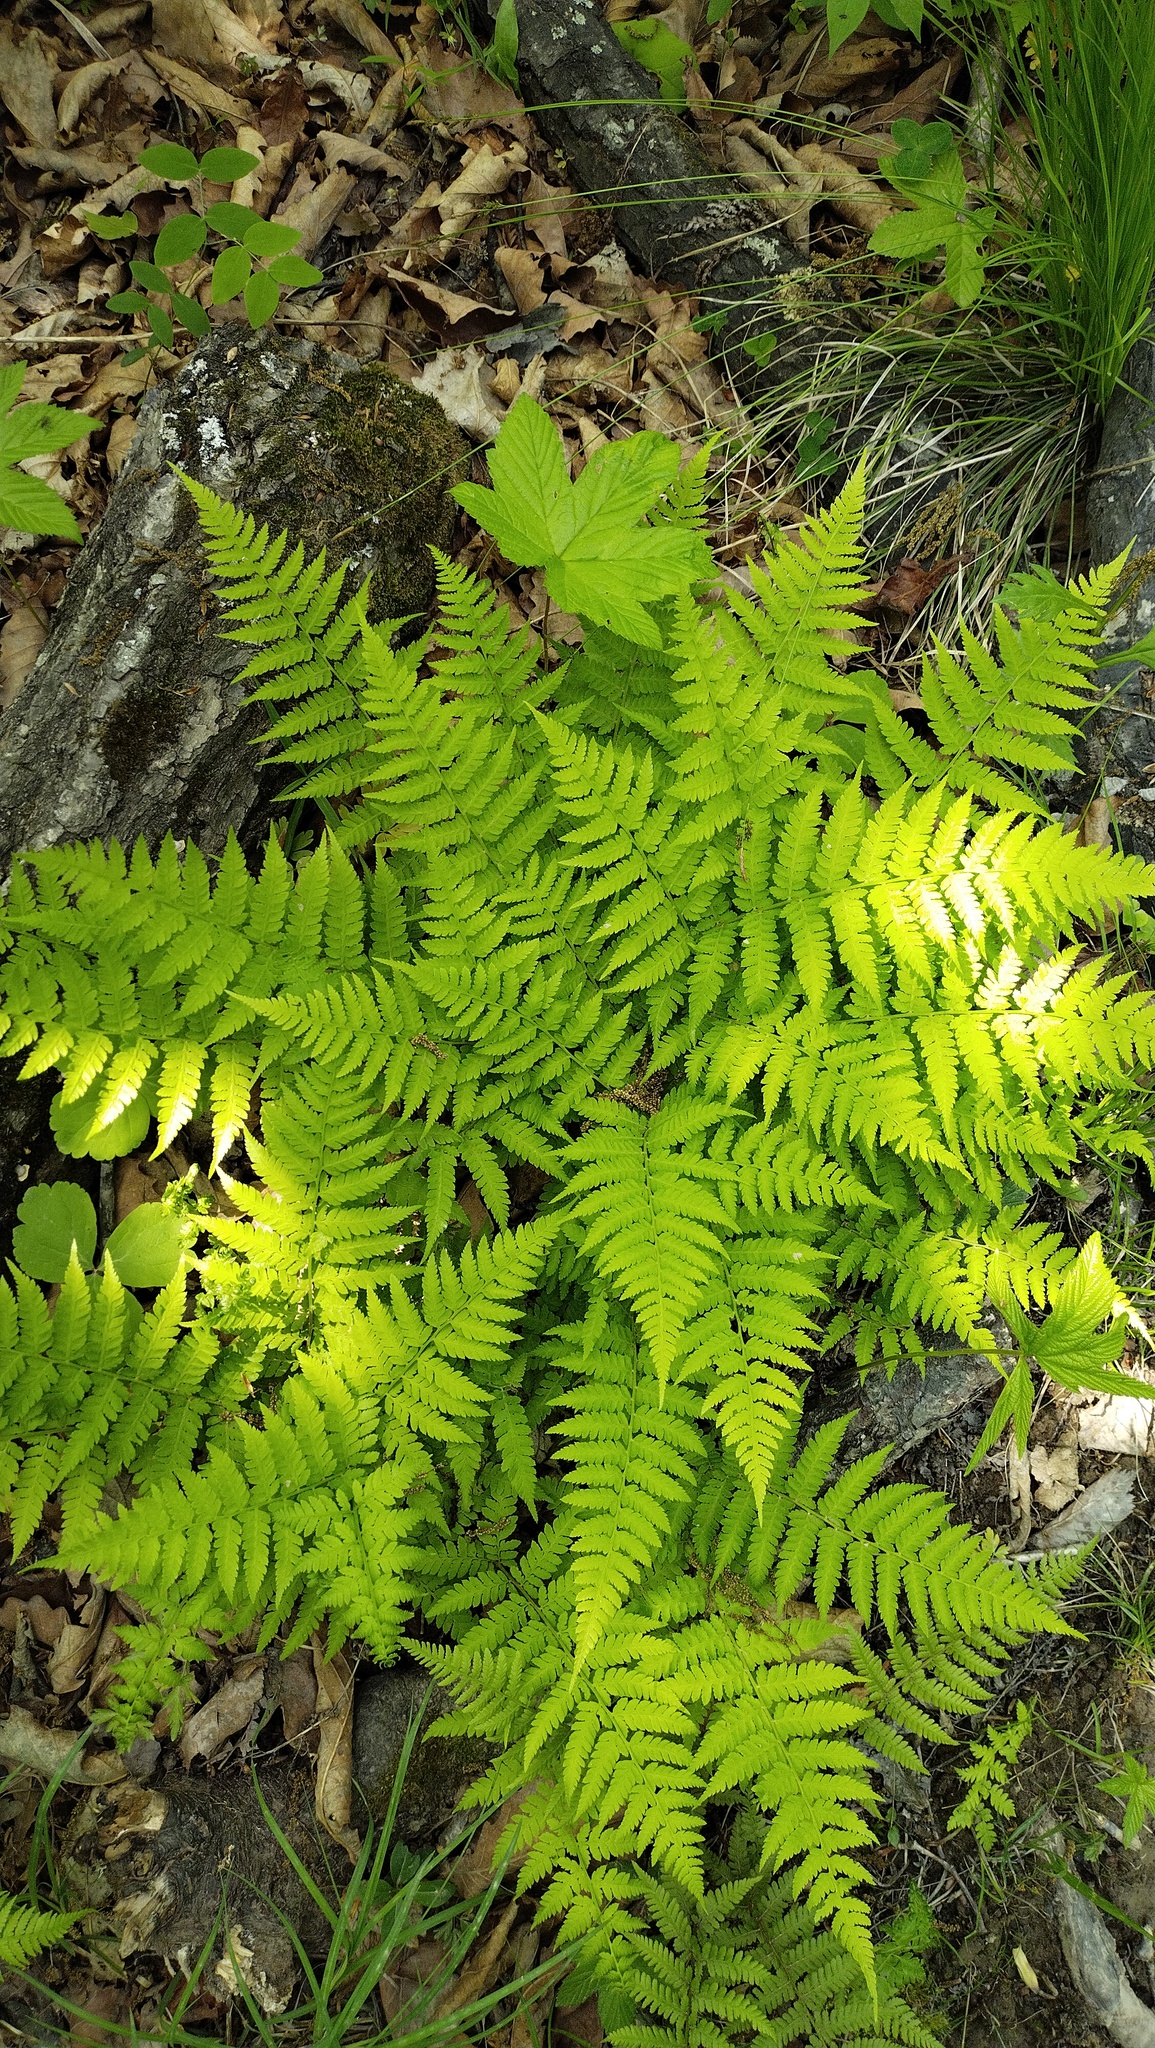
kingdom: Plantae
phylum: Tracheophyta
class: Polypodiopsida
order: Polypodiales
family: Athyriaceae
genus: Athyrium
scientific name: Athyrium yokoscense
